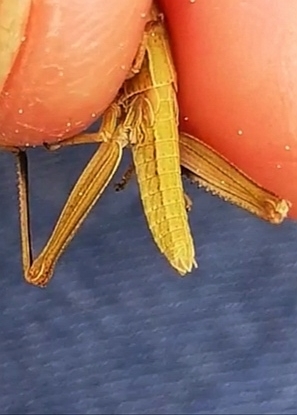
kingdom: Animalia
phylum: Arthropoda
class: Insecta
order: Orthoptera
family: Acrididae
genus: Euthystira
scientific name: Euthystira brachyptera
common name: Small gold grasshopper
